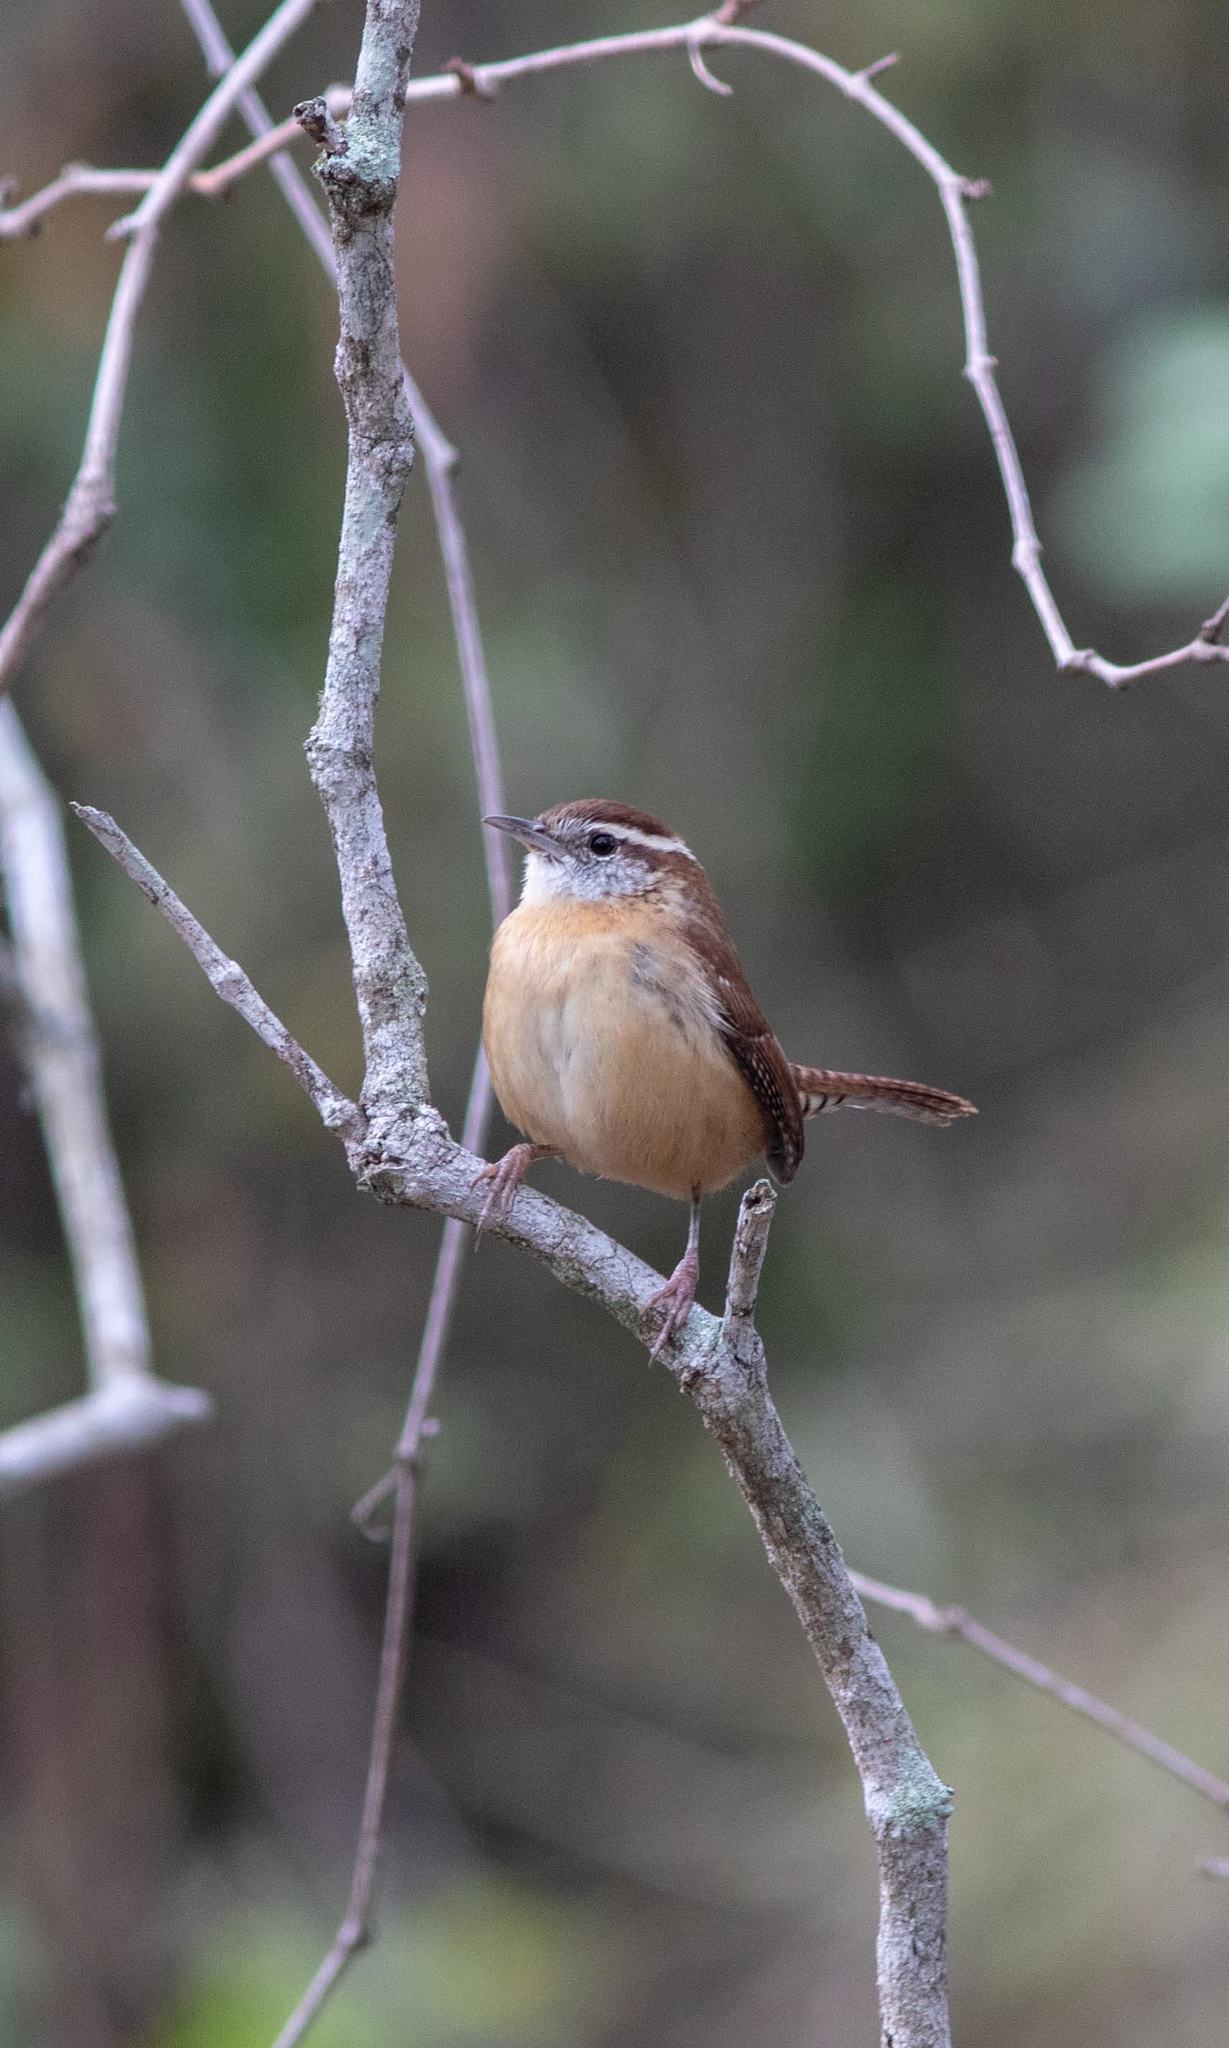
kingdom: Animalia
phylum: Chordata
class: Aves
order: Passeriformes
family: Troglodytidae
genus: Thryothorus
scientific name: Thryothorus ludovicianus
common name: Carolina wren
